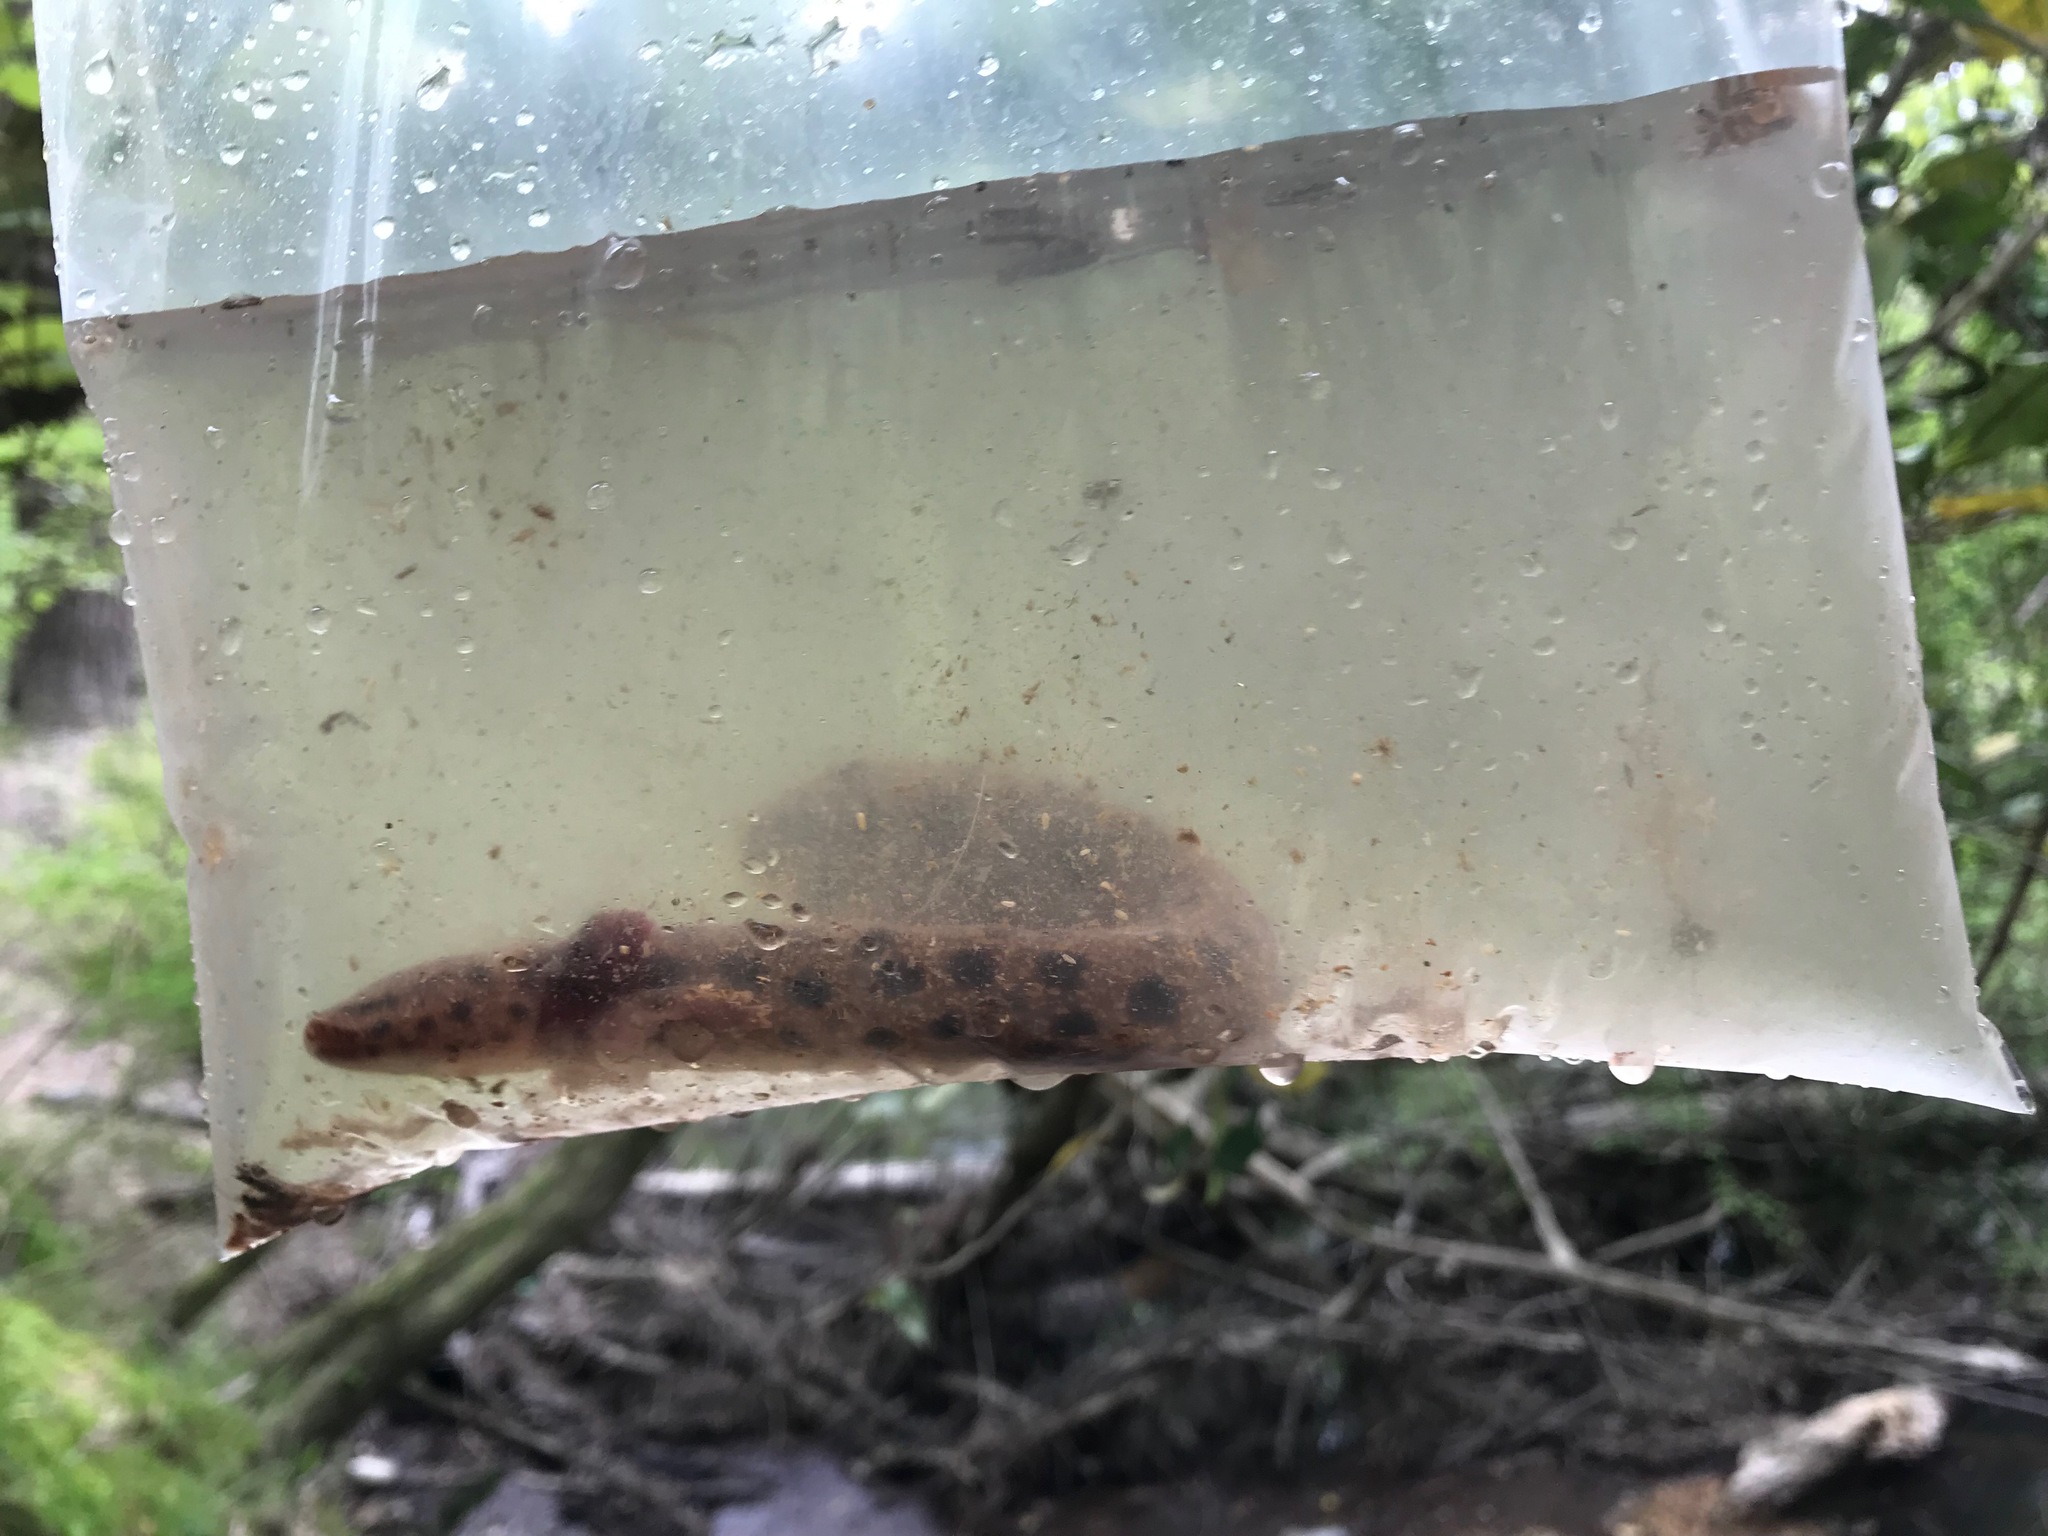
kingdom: Animalia
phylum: Chordata
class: Amphibia
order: Caudata
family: Proteidae
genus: Necturus
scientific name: Necturus beyeri
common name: Gulf coast waterdog
